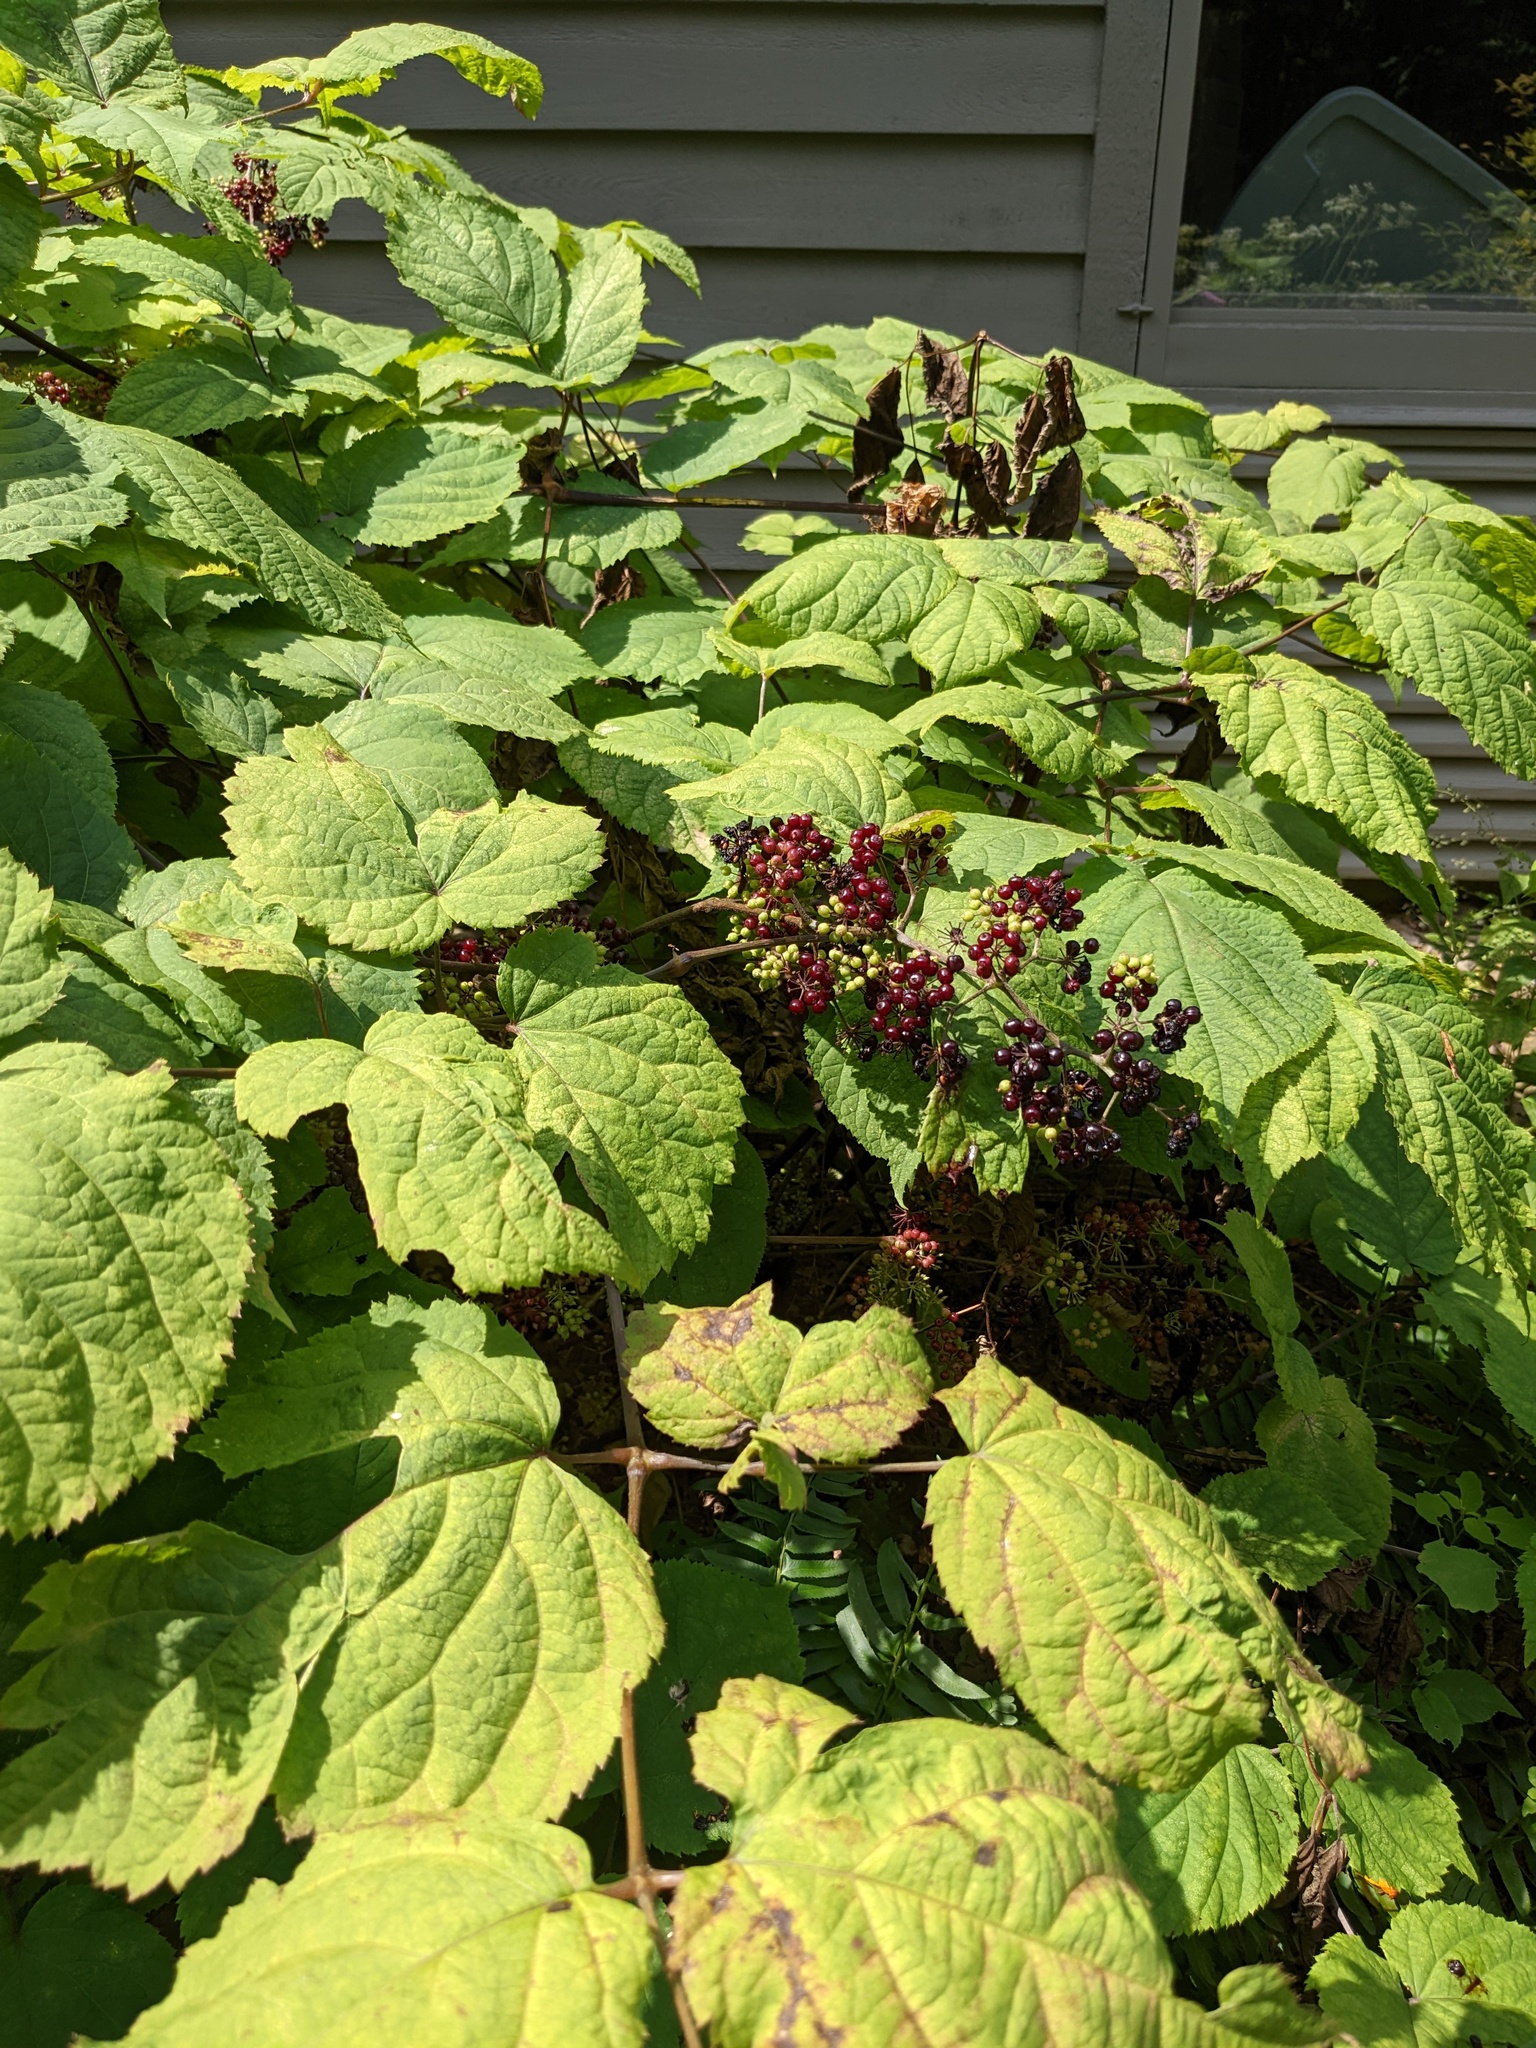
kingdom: Plantae
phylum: Tracheophyta
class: Magnoliopsida
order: Apiales
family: Araliaceae
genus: Aralia
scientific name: Aralia racemosa
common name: American-spikenard
